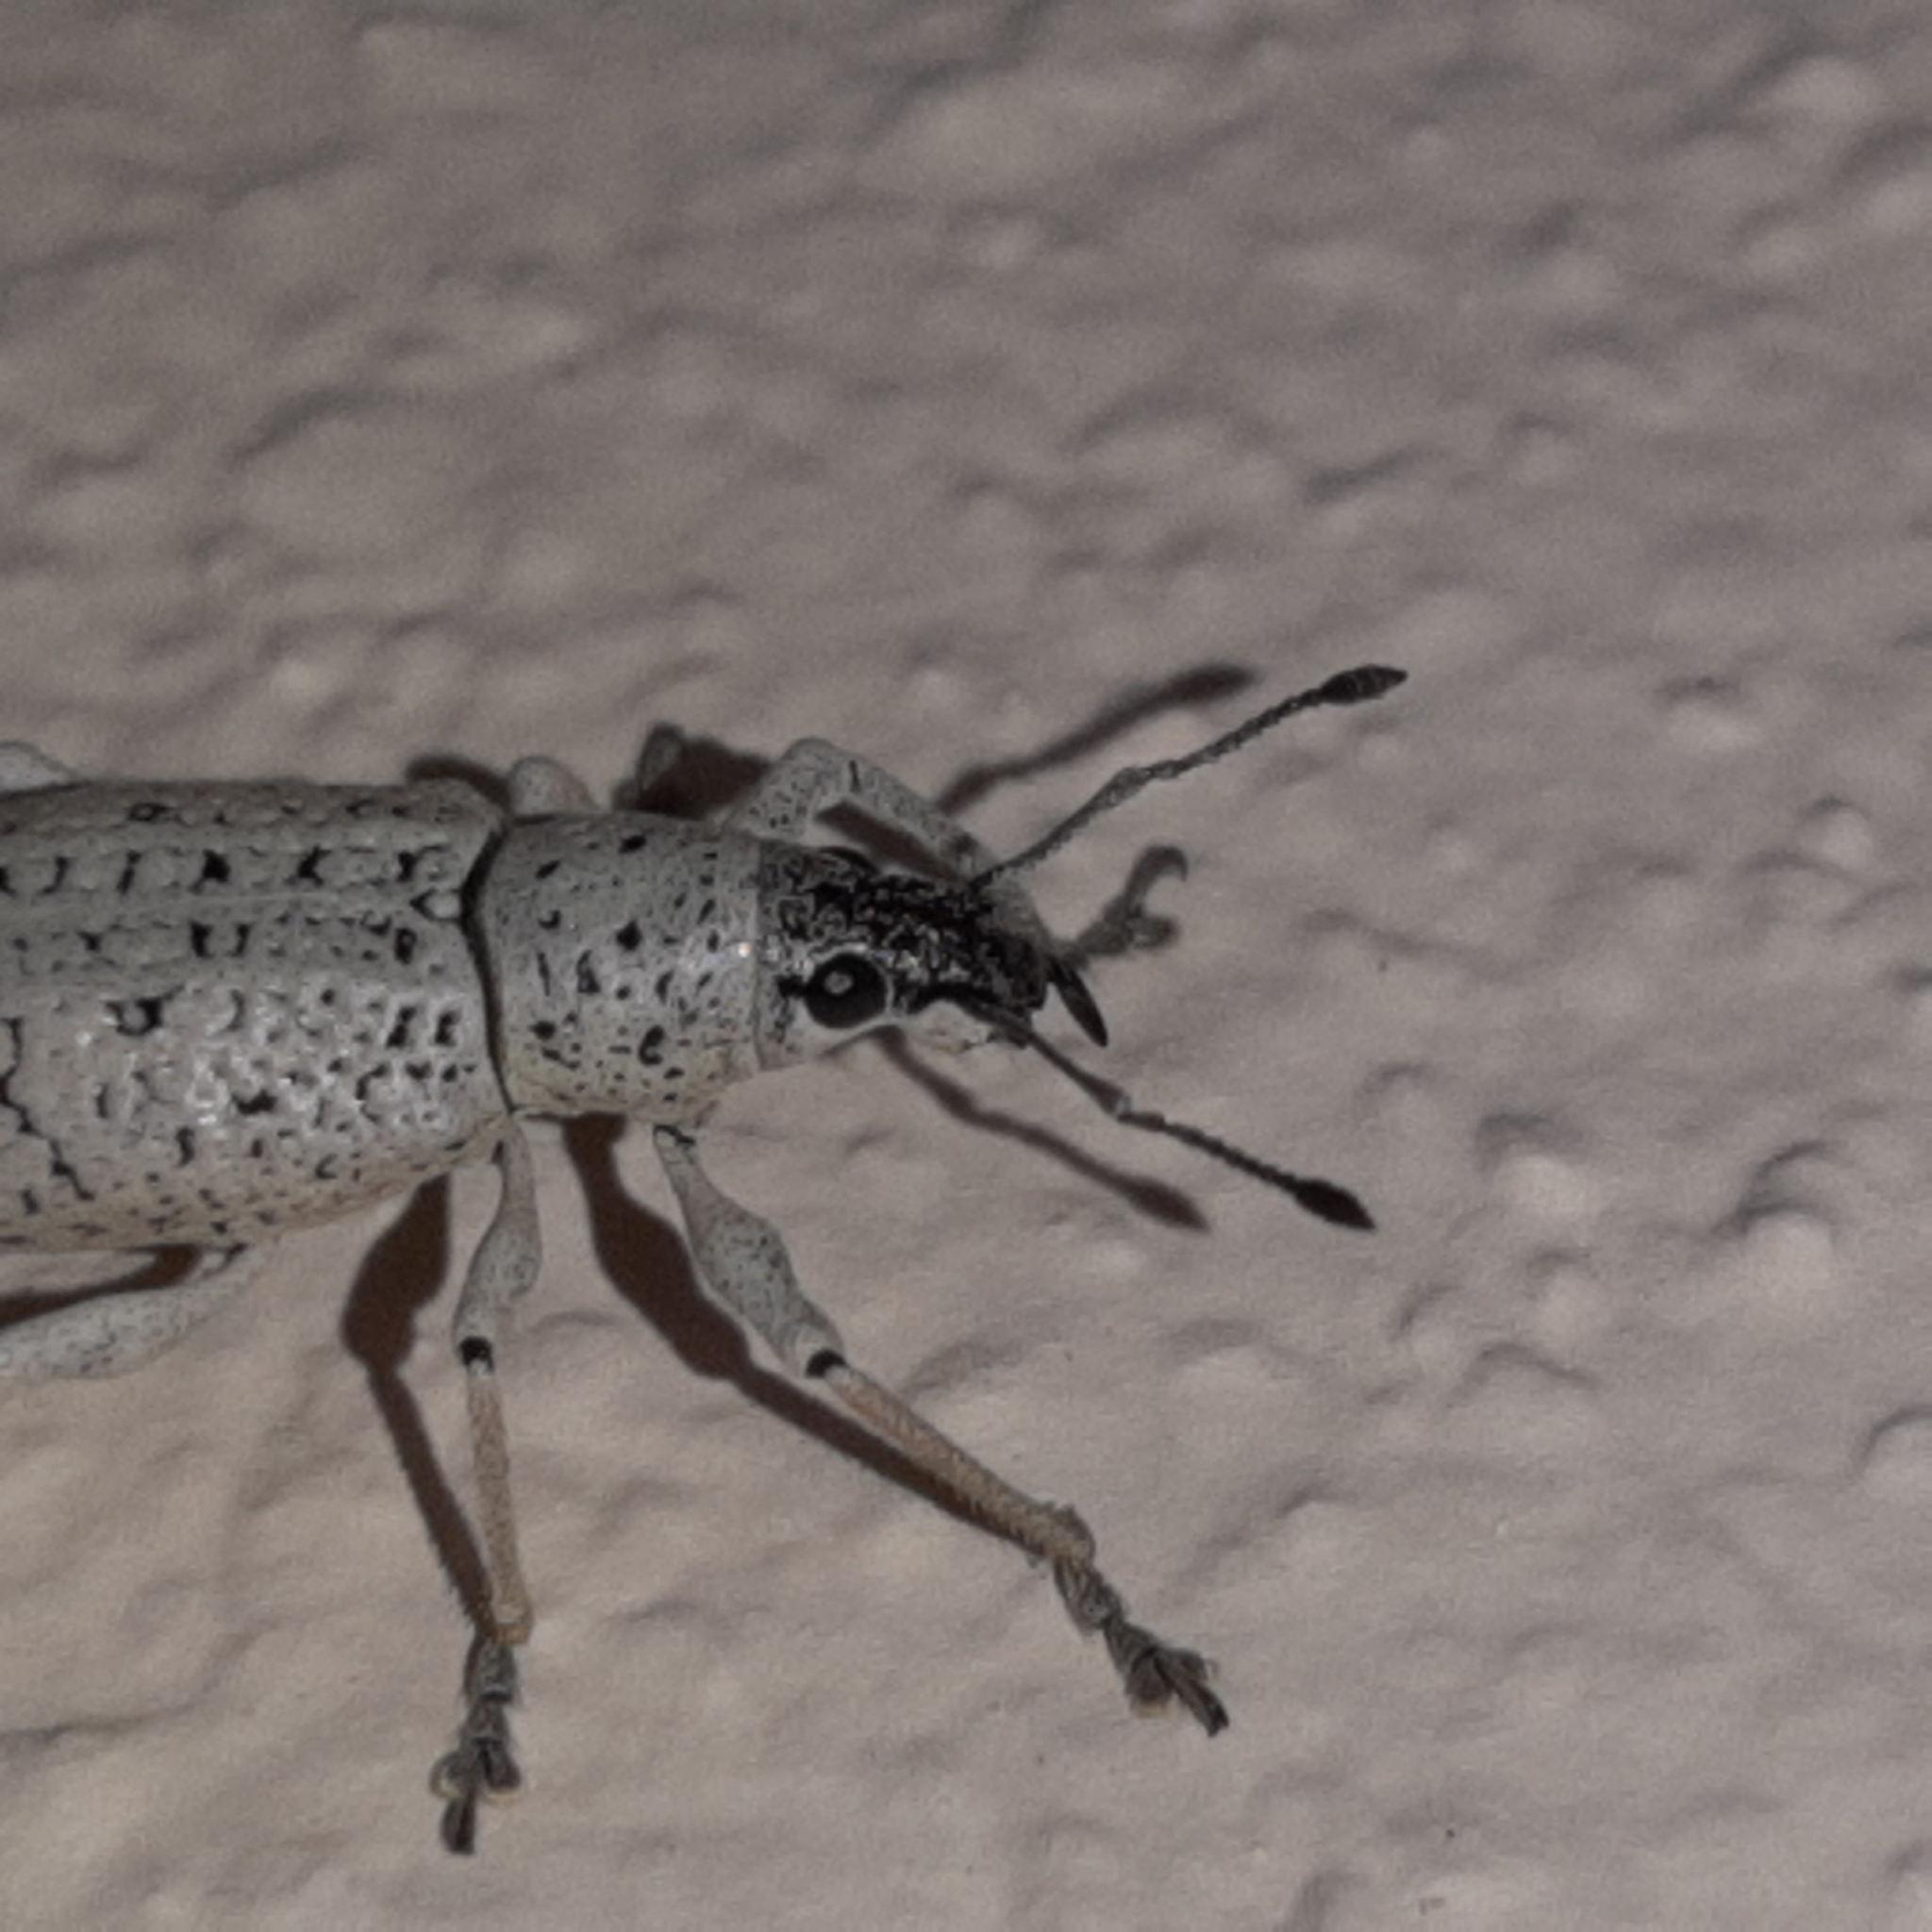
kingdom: Animalia
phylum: Arthropoda
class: Insecta
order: Coleoptera
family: Curculionidae
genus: Exophthalmus
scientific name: Exophthalmus scalptus
